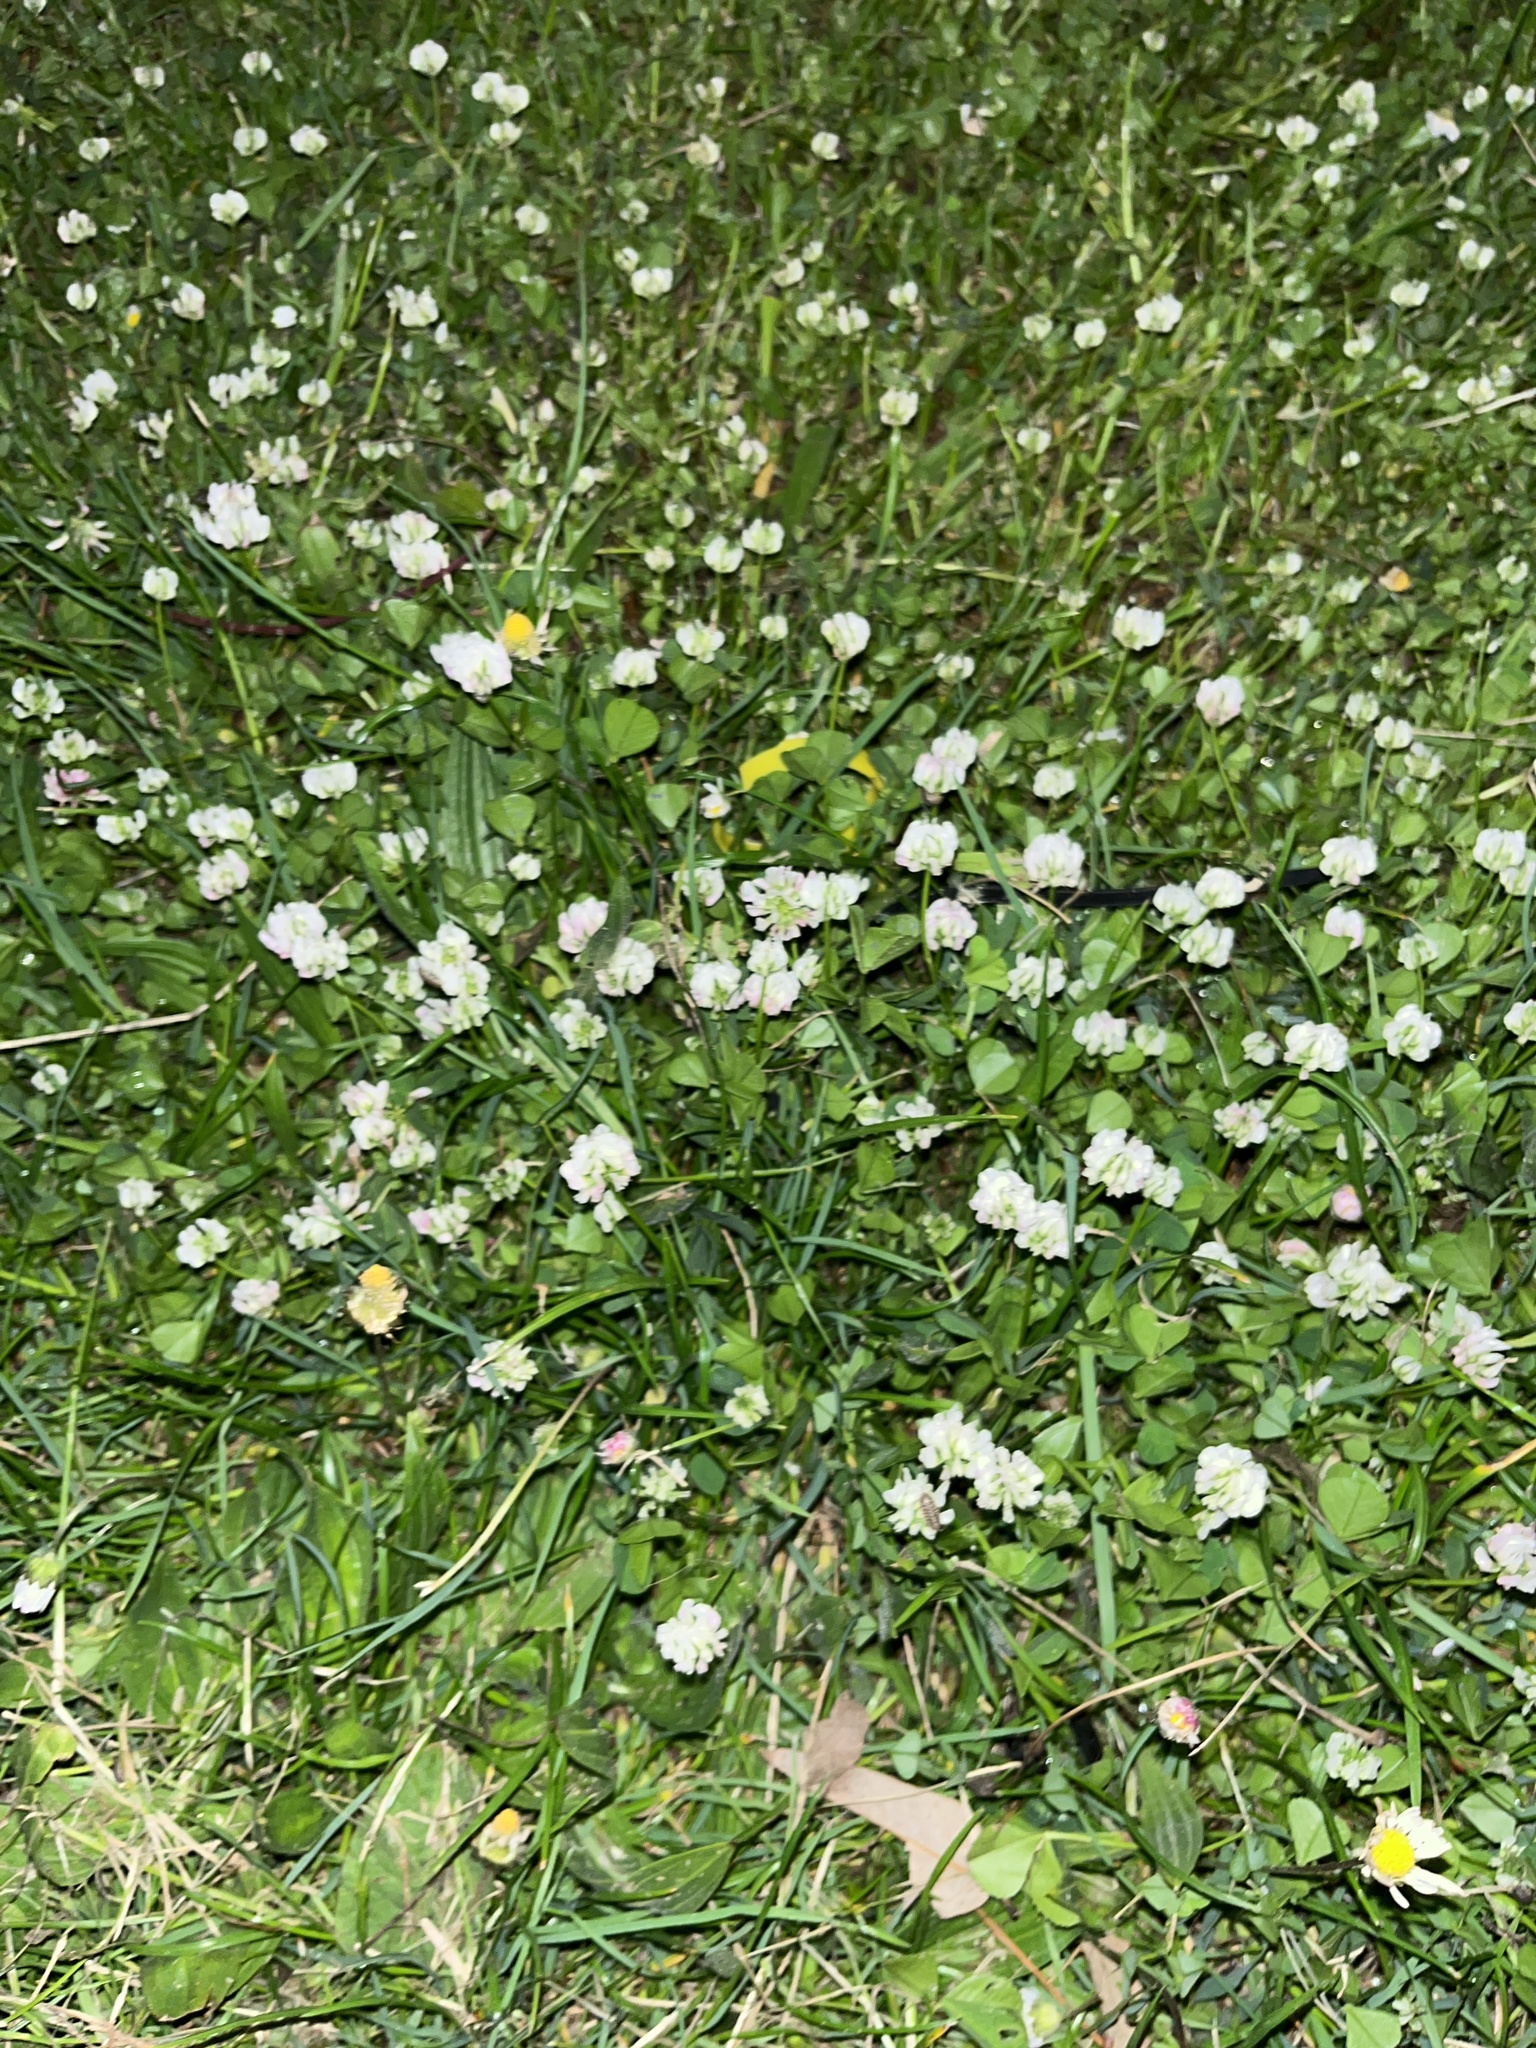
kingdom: Plantae
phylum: Tracheophyta
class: Magnoliopsida
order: Fabales
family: Fabaceae
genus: Trifolium
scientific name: Trifolium repens
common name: White clover
